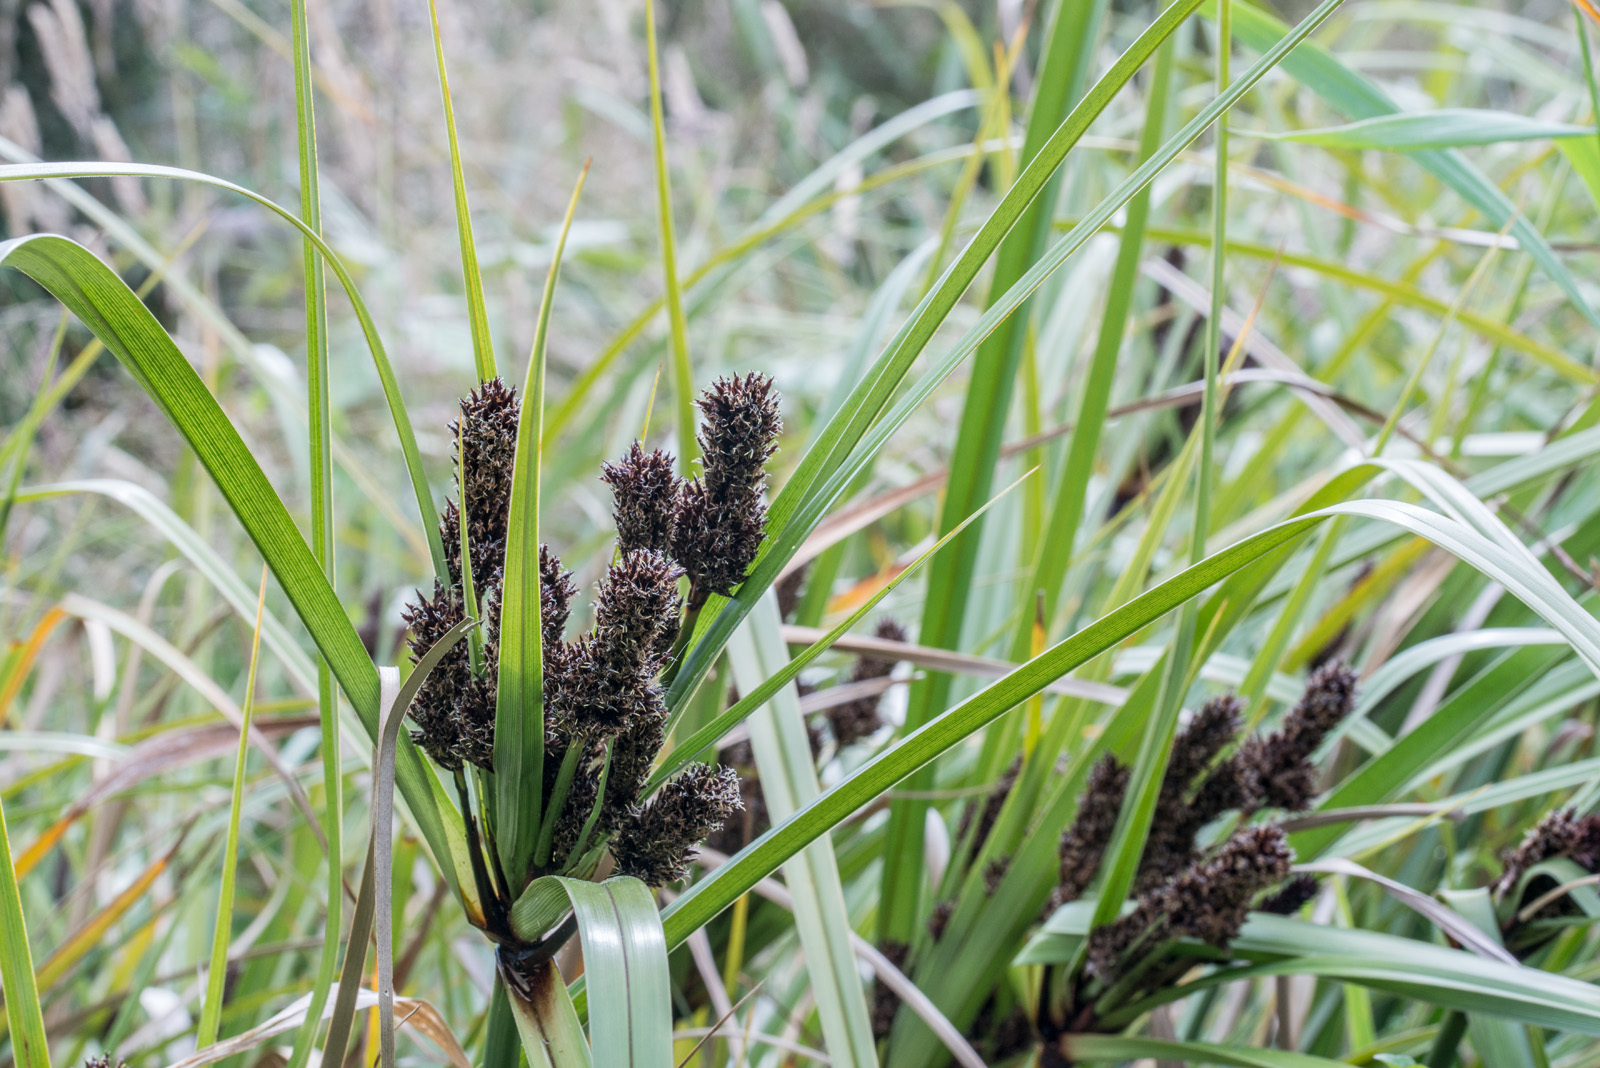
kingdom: Plantae
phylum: Tracheophyta
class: Liliopsida
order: Poales
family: Cyperaceae
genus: Cyperus
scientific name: Cyperus ustulatus
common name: Giant umbrella-sedge
